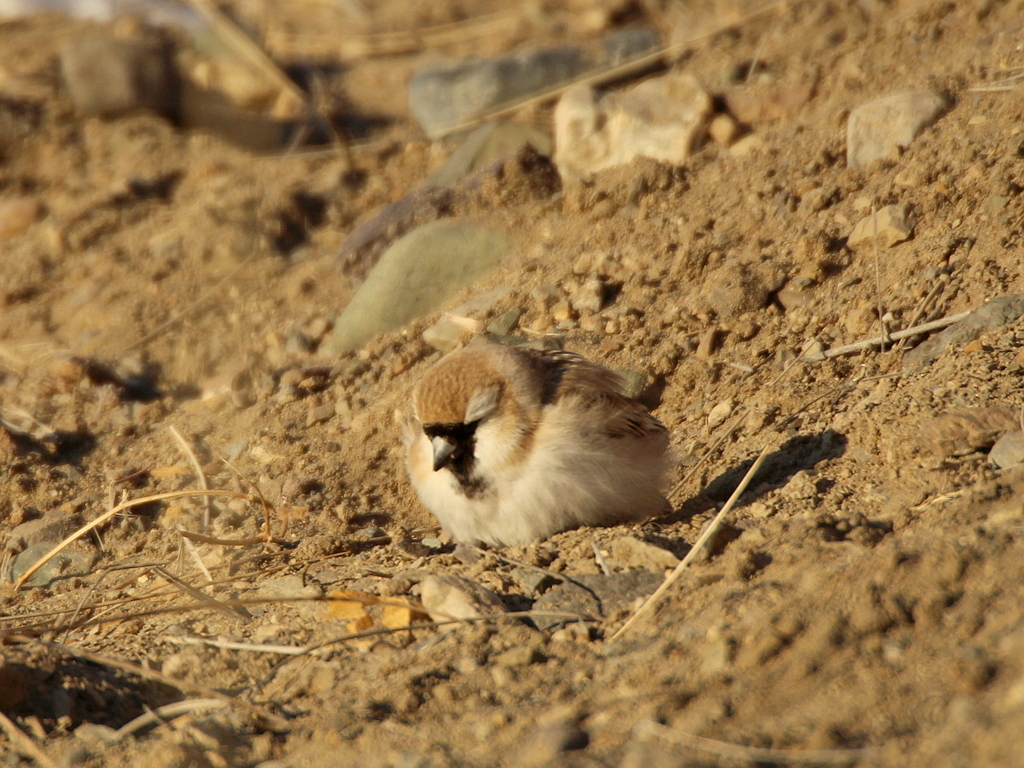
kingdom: Animalia
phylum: Chordata
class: Aves
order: Passeriformes
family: Passeridae
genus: Pyrgilauda
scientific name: Pyrgilauda davidiana
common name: Pere david's snowfinch
